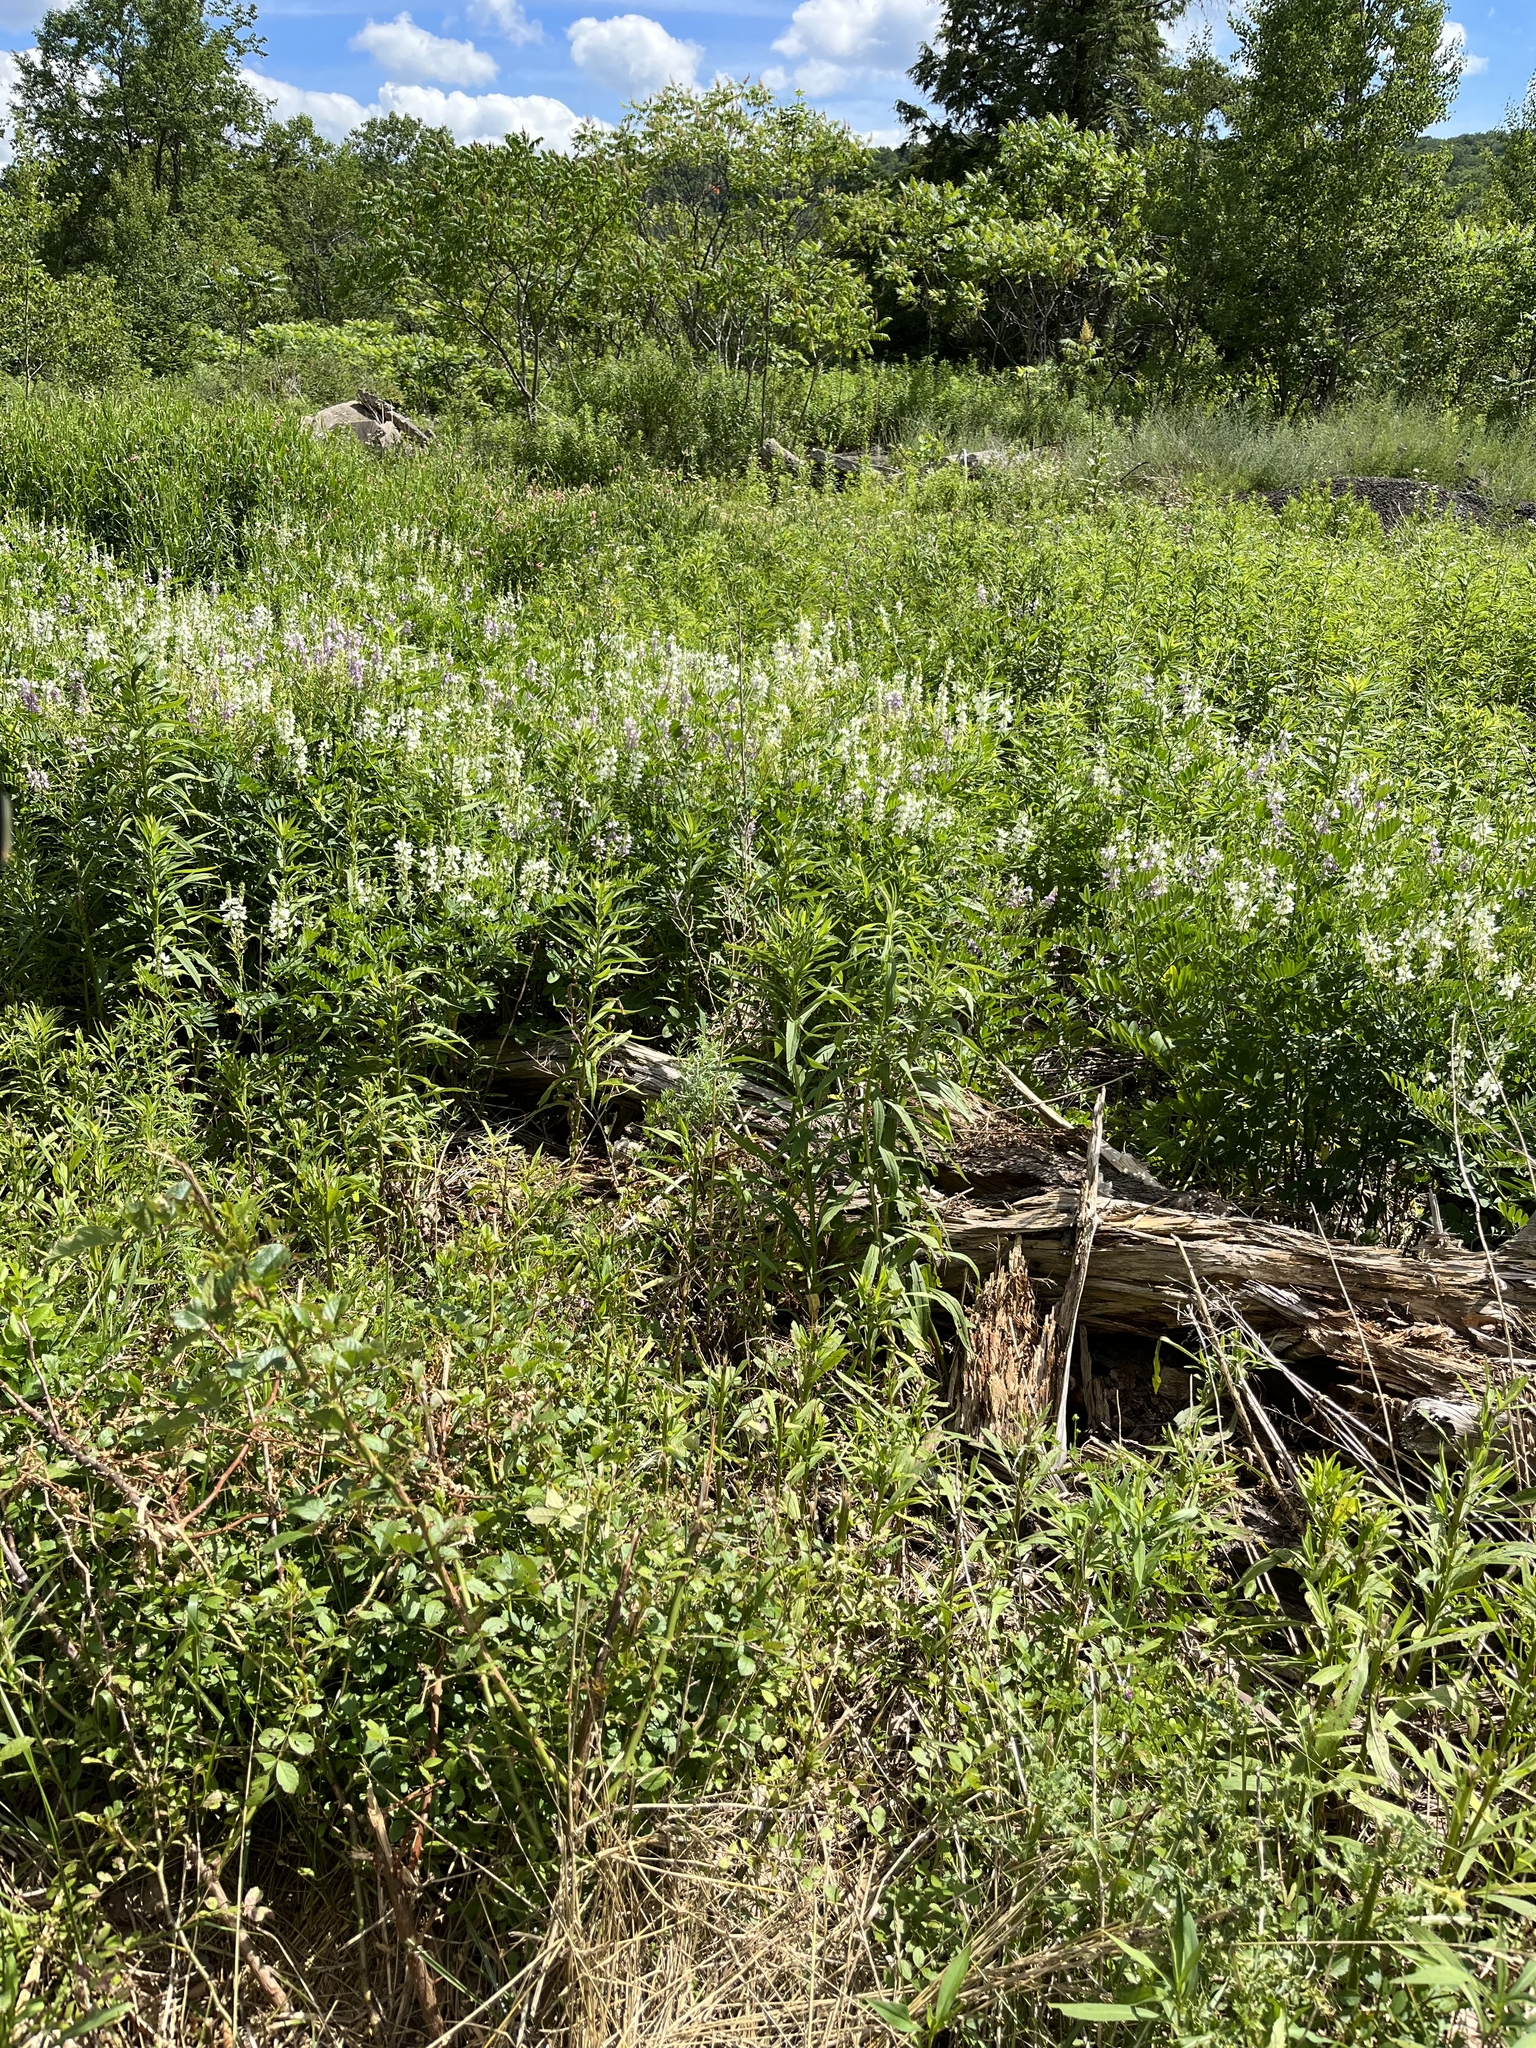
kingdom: Plantae
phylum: Tracheophyta
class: Magnoliopsida
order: Fabales
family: Fabaceae
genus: Galega
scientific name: Galega officinalis
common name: Goat's-rue
